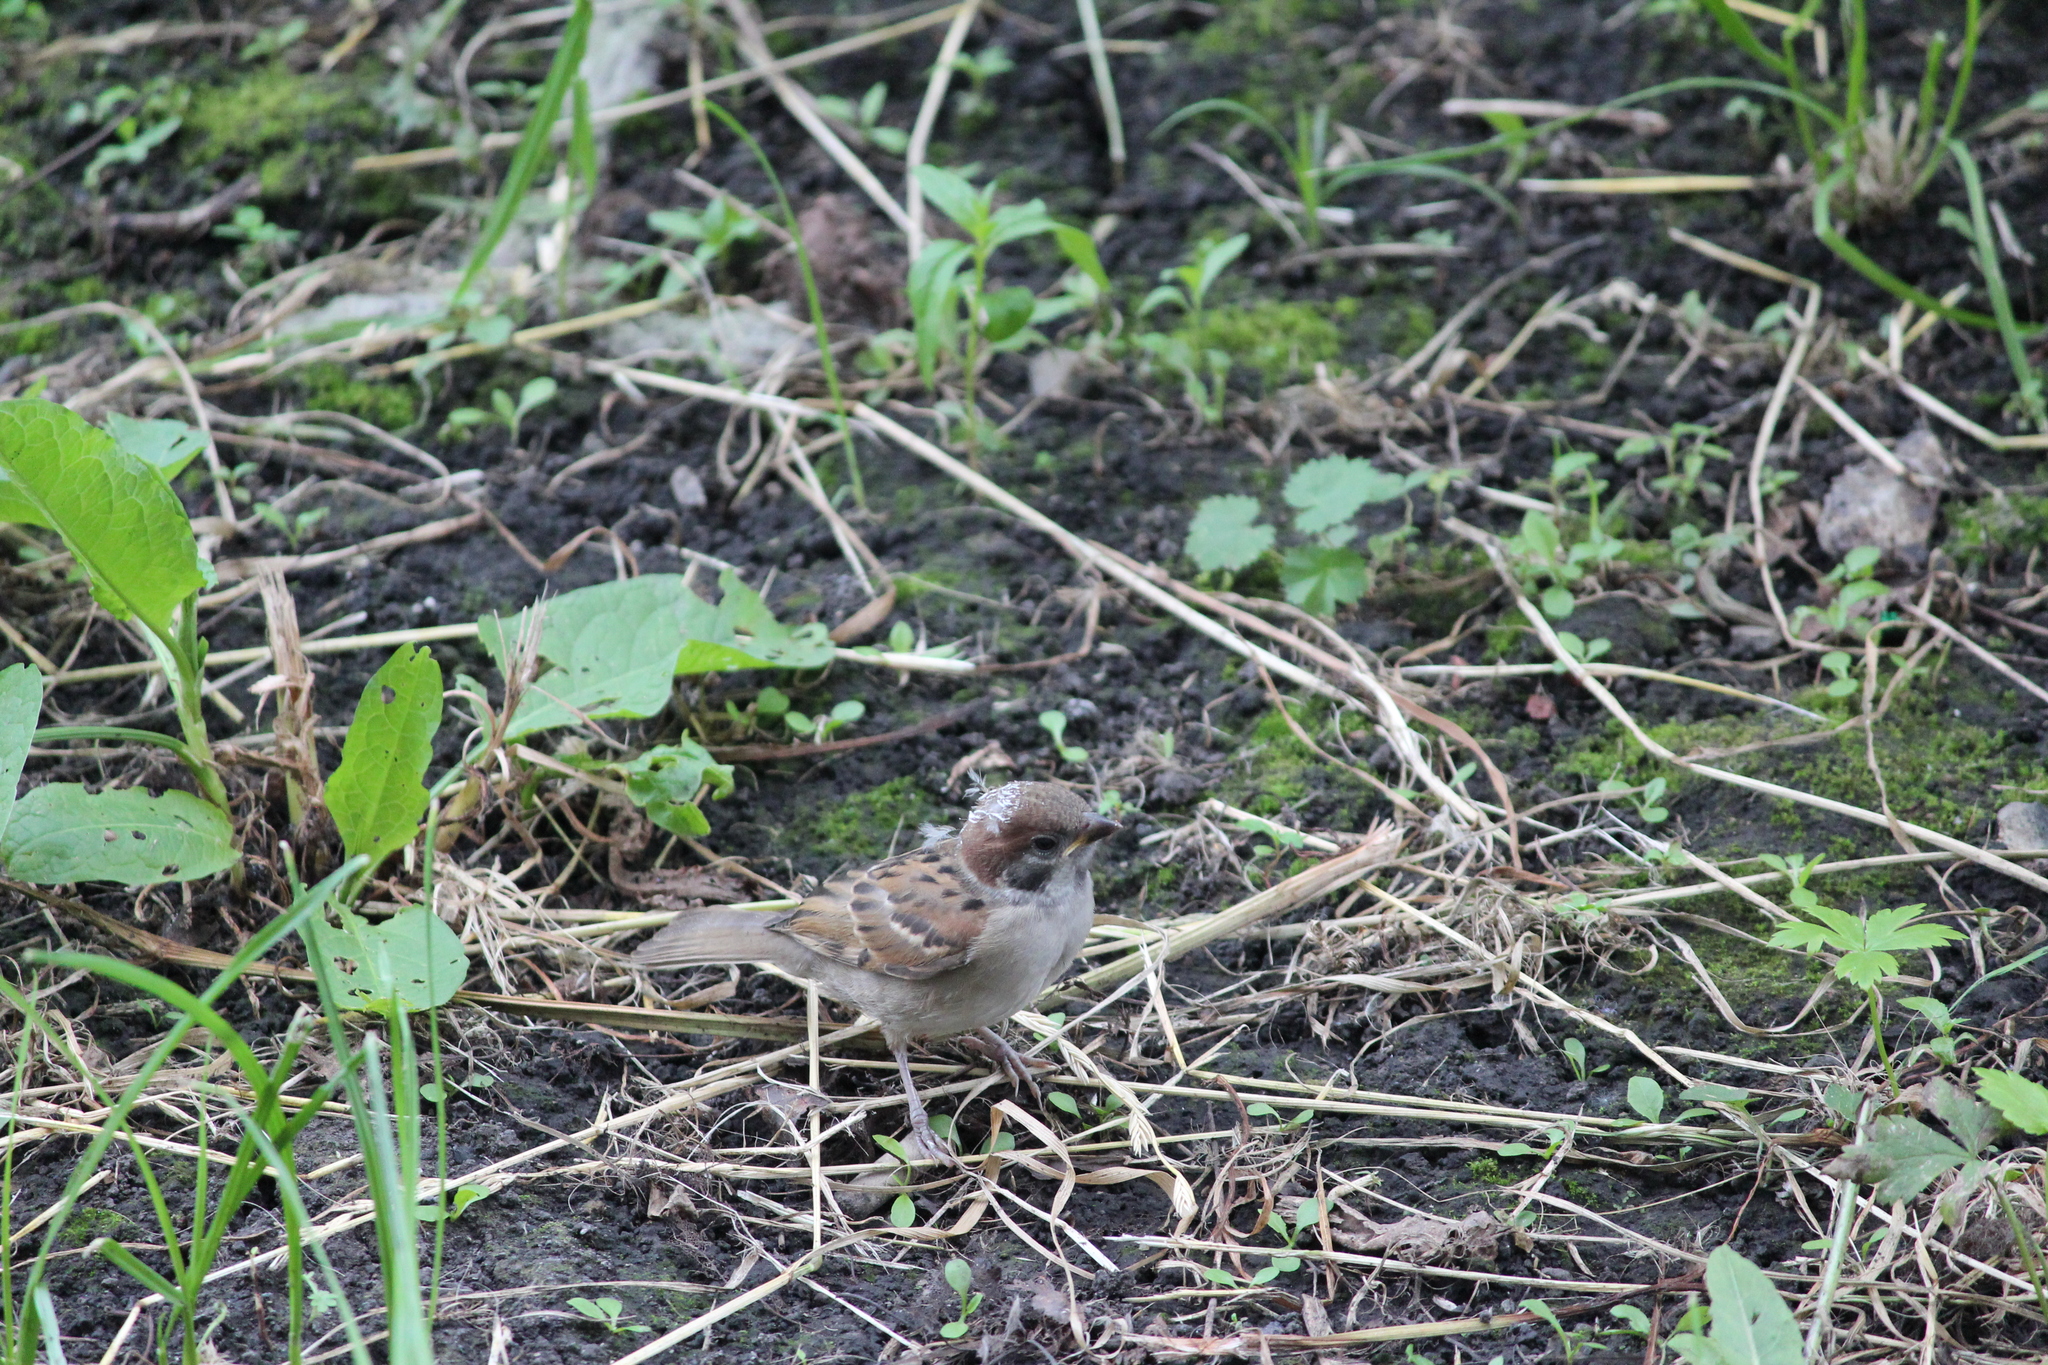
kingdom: Animalia
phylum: Chordata
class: Aves
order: Passeriformes
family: Passeridae
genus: Passer
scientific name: Passer montanus
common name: Eurasian tree sparrow
